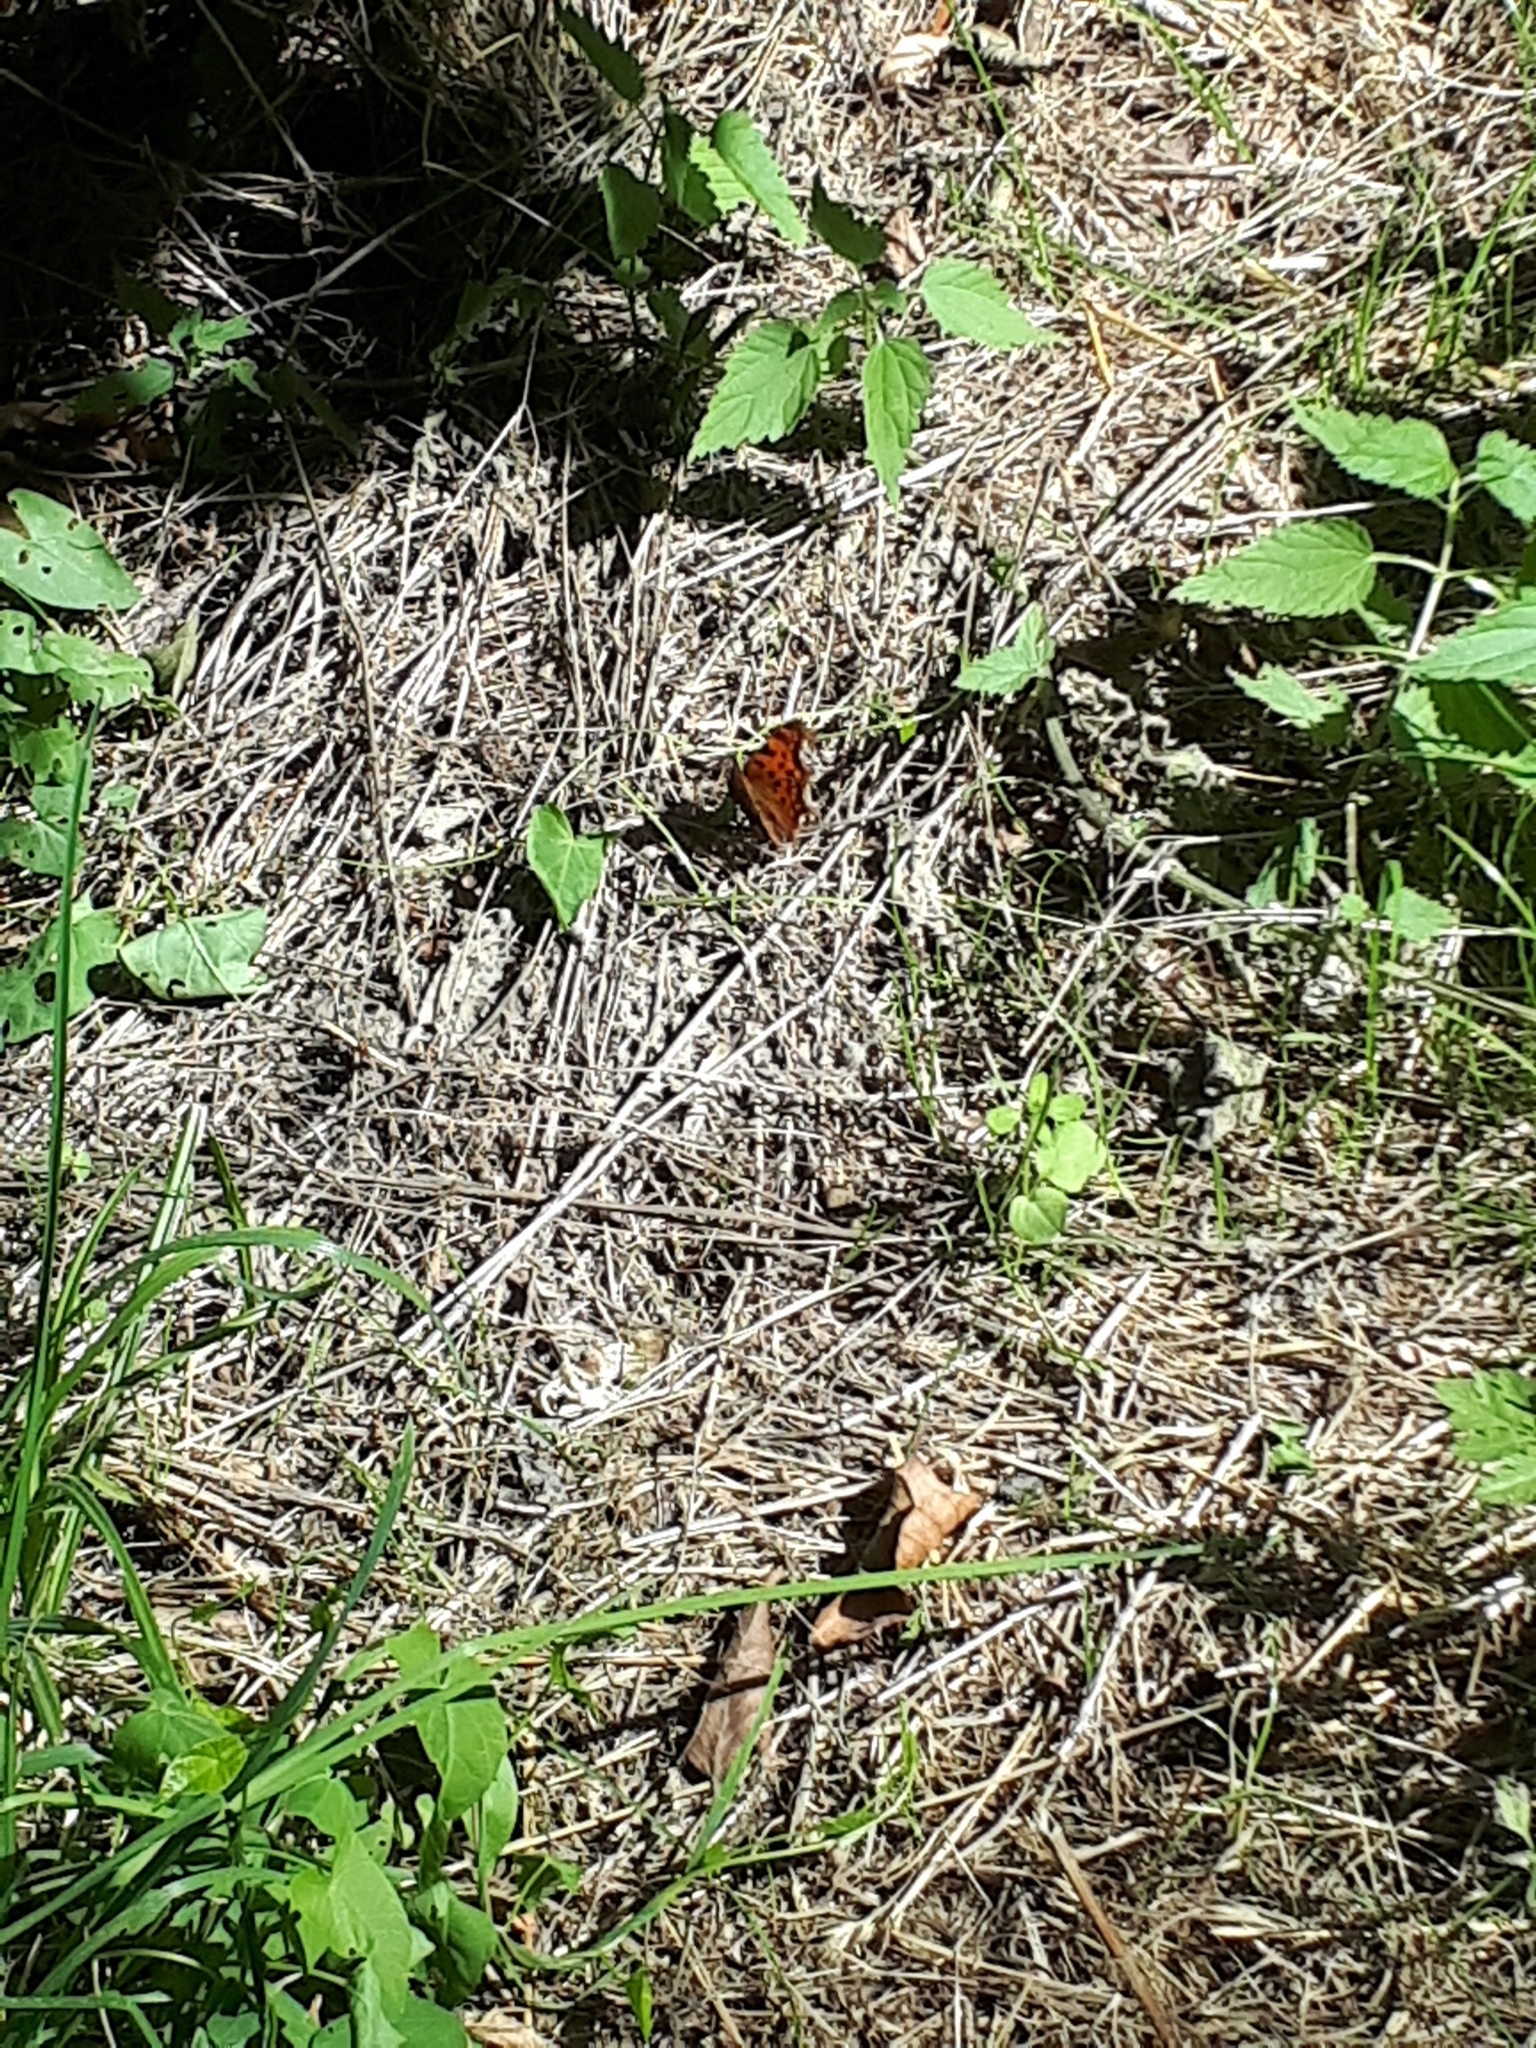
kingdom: Animalia
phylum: Arthropoda
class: Insecta
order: Lepidoptera
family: Nymphalidae
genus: Polygonia
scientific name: Polygonia c-album
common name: Comma
